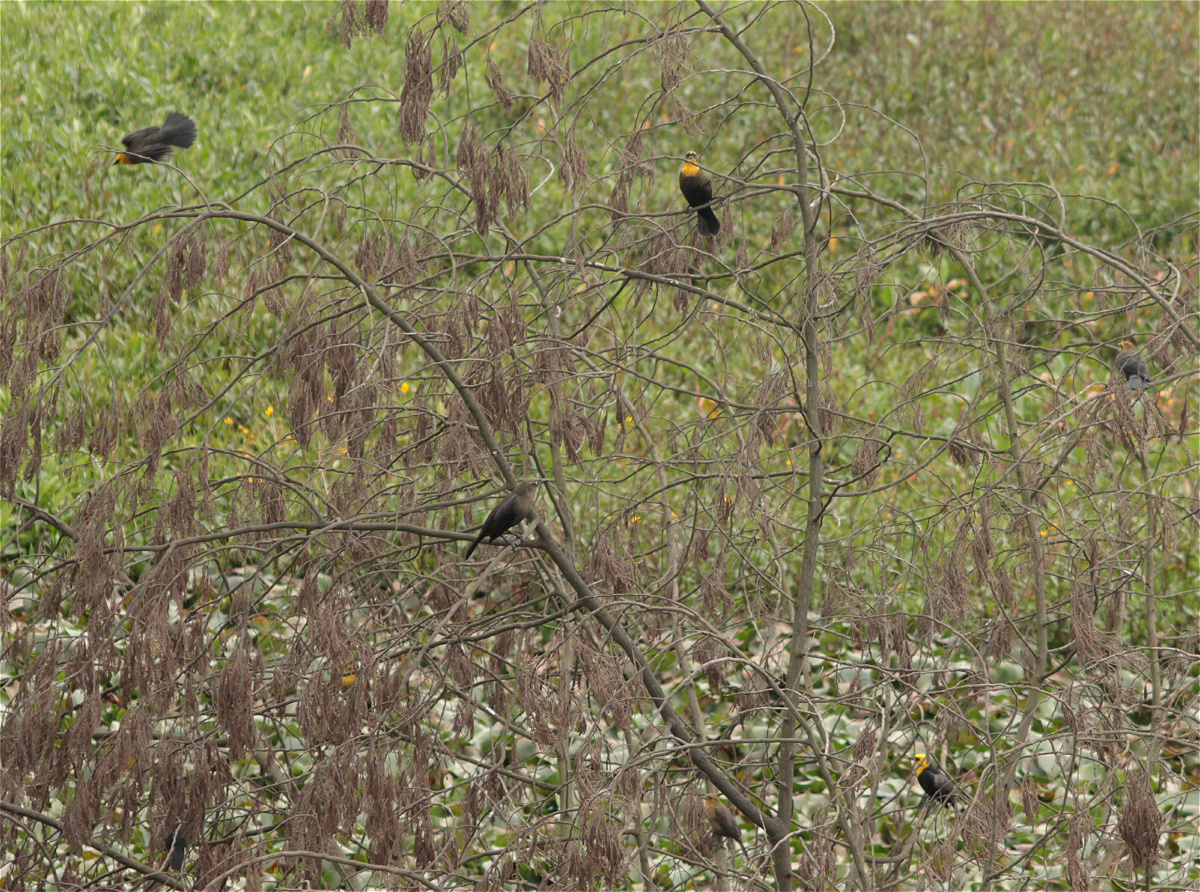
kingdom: Animalia
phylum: Chordata
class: Aves
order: Passeriformes
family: Icteridae
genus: Chrysomus
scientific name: Chrysomus icterocephalus
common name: Yellow-hooded blackbird
